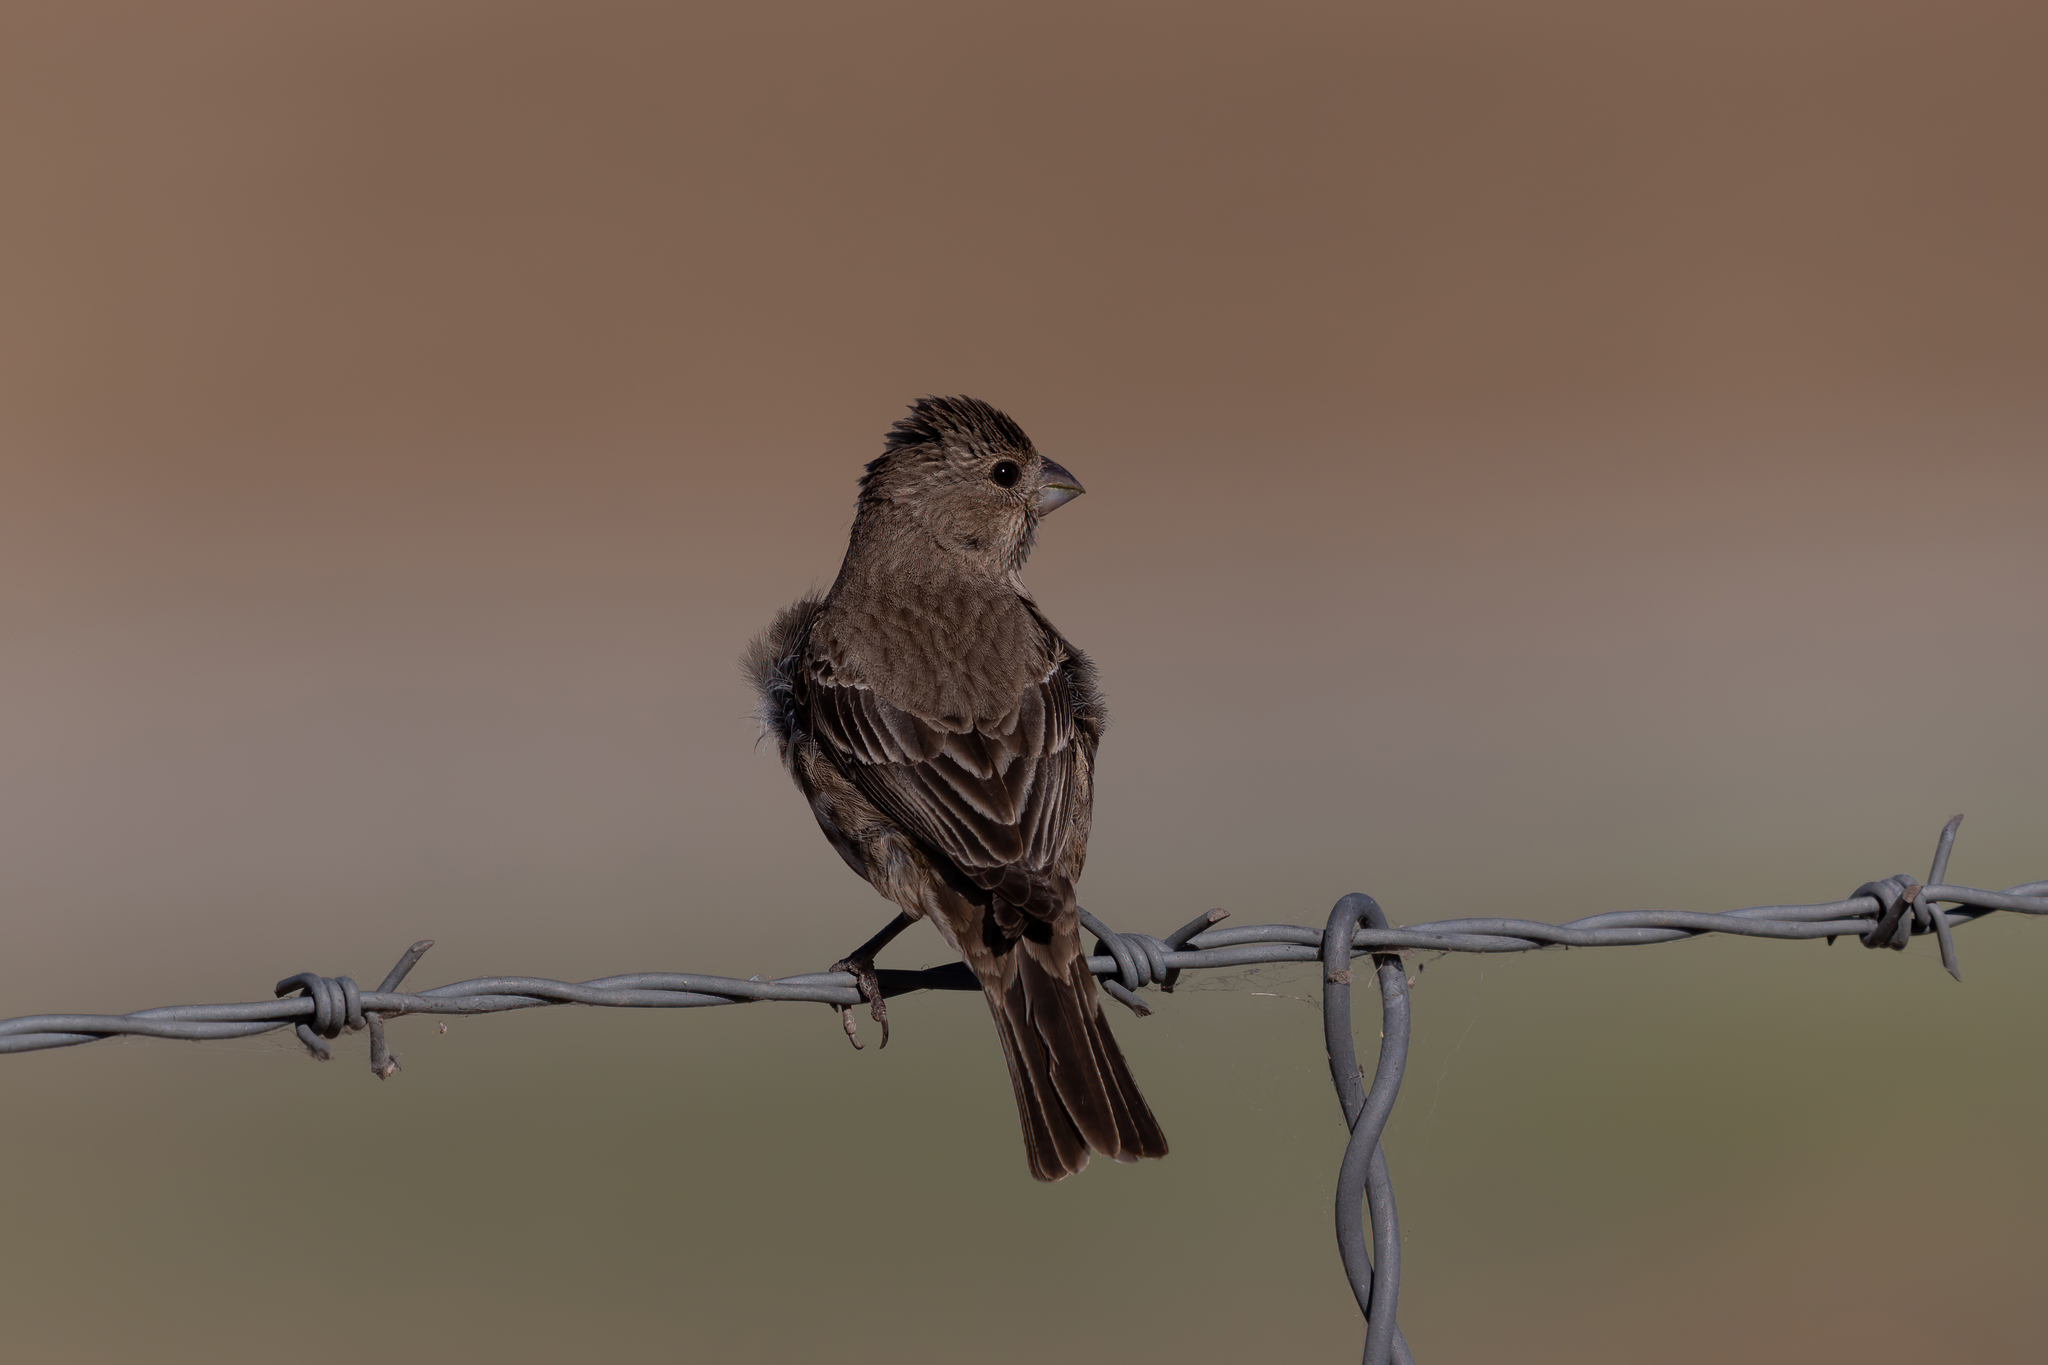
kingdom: Animalia
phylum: Chordata
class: Aves
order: Passeriformes
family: Fringillidae
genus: Haemorhous
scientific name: Haemorhous mexicanus
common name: House finch
